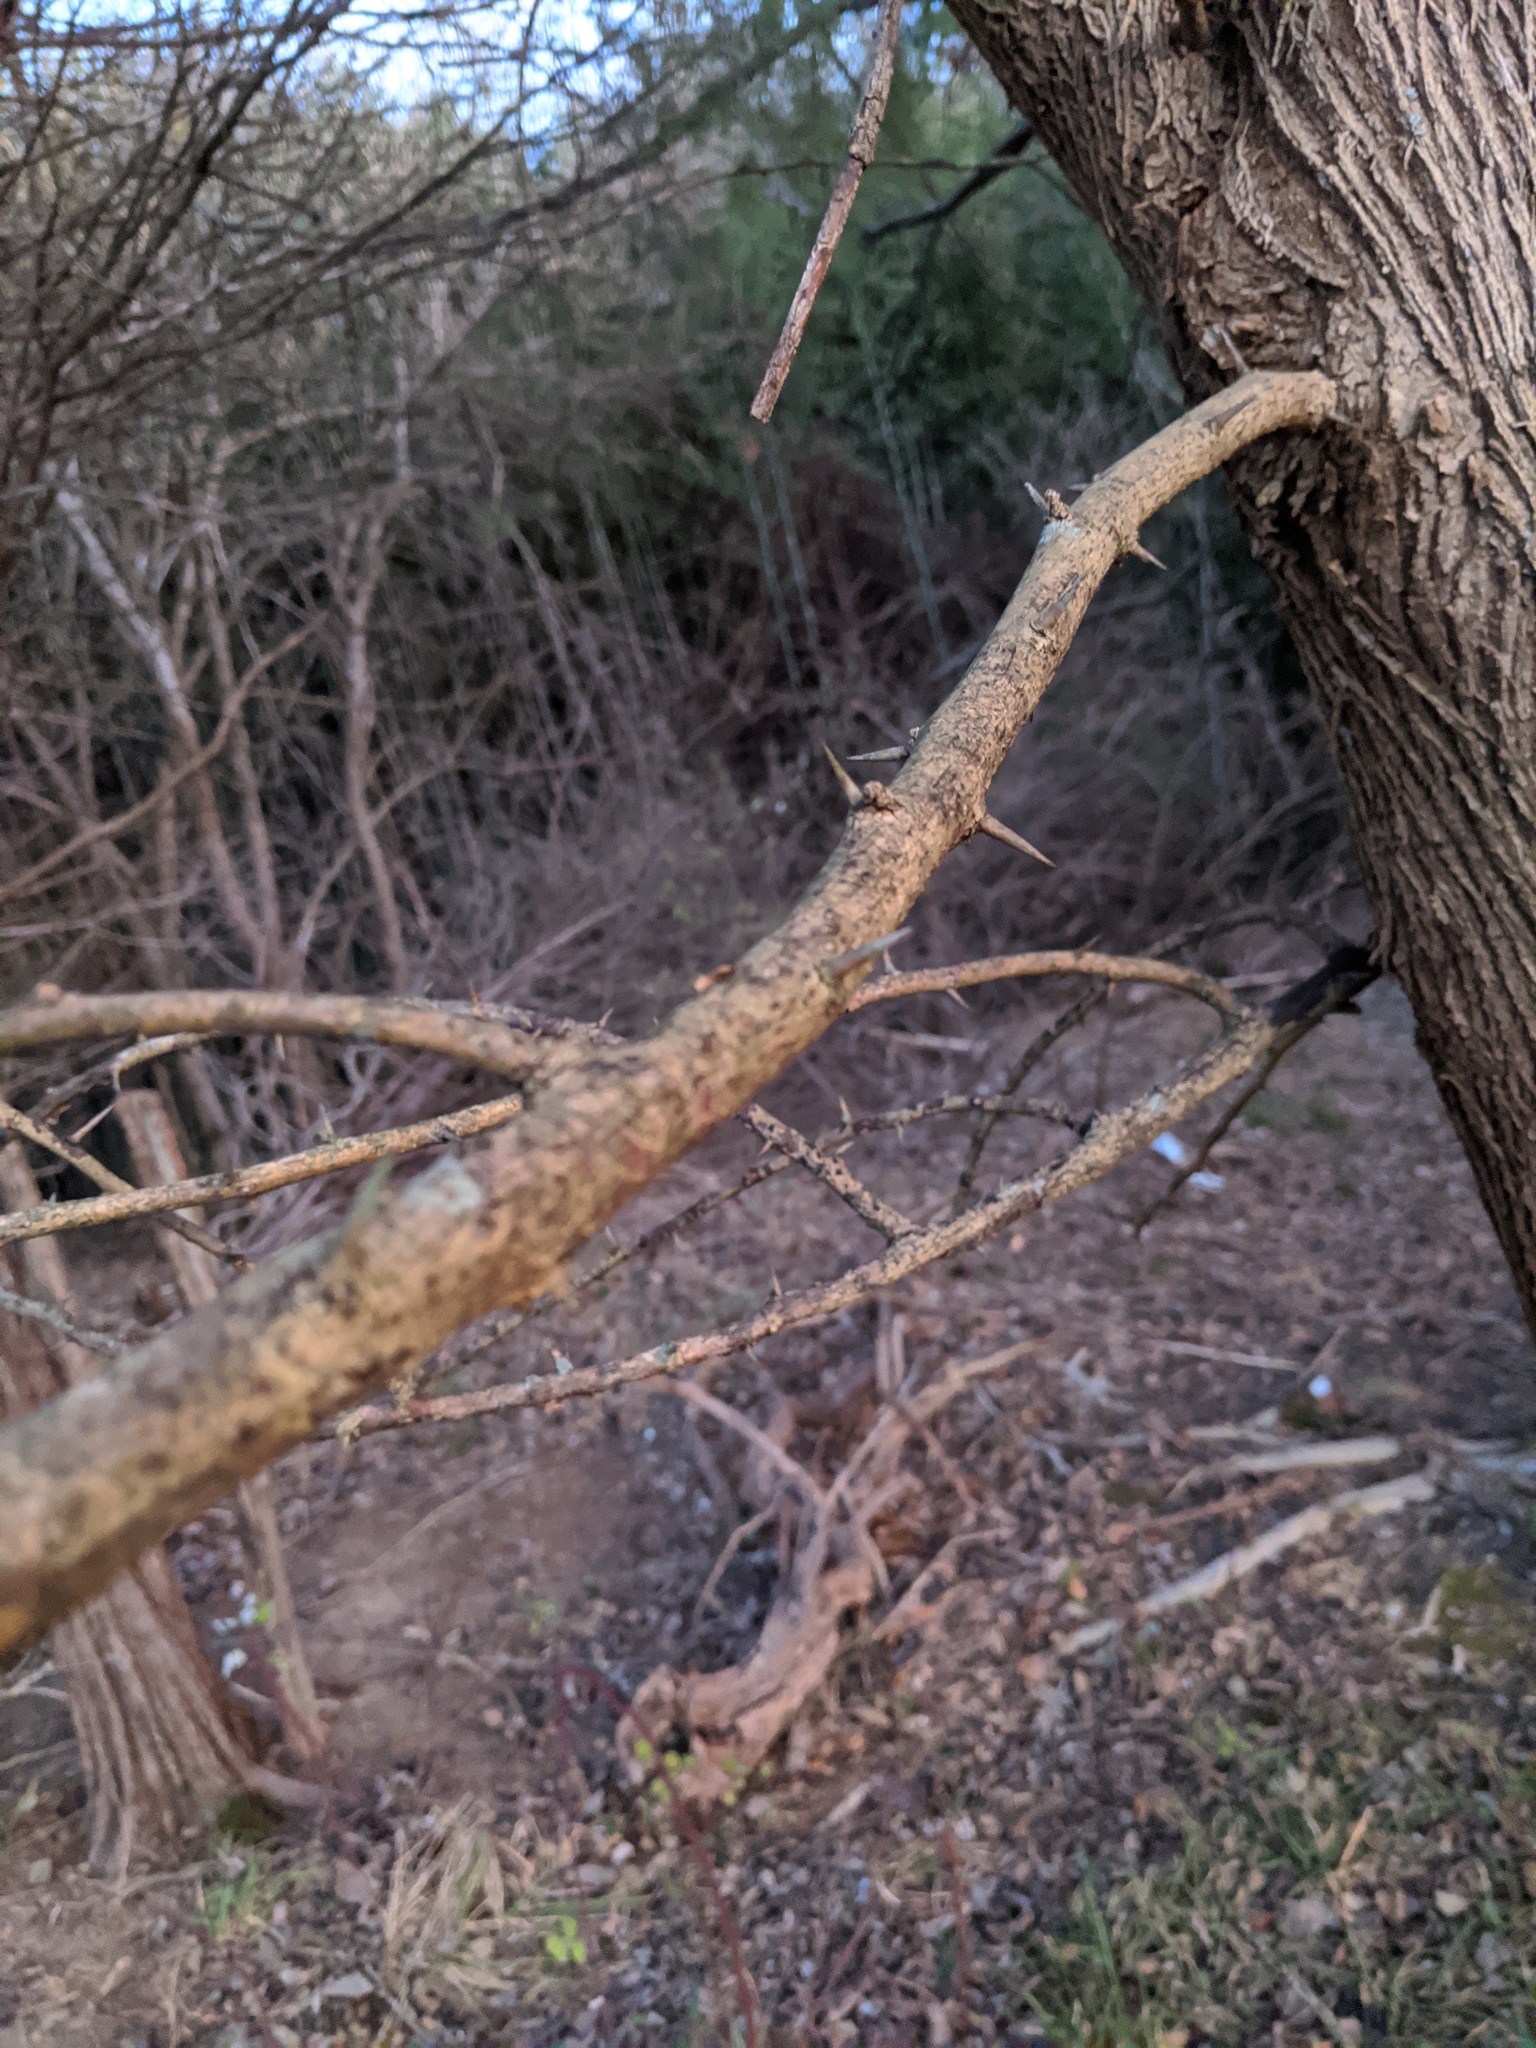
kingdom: Plantae
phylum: Tracheophyta
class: Magnoliopsida
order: Rosales
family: Moraceae
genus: Maclura
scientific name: Maclura pomifera
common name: Osage-orange
